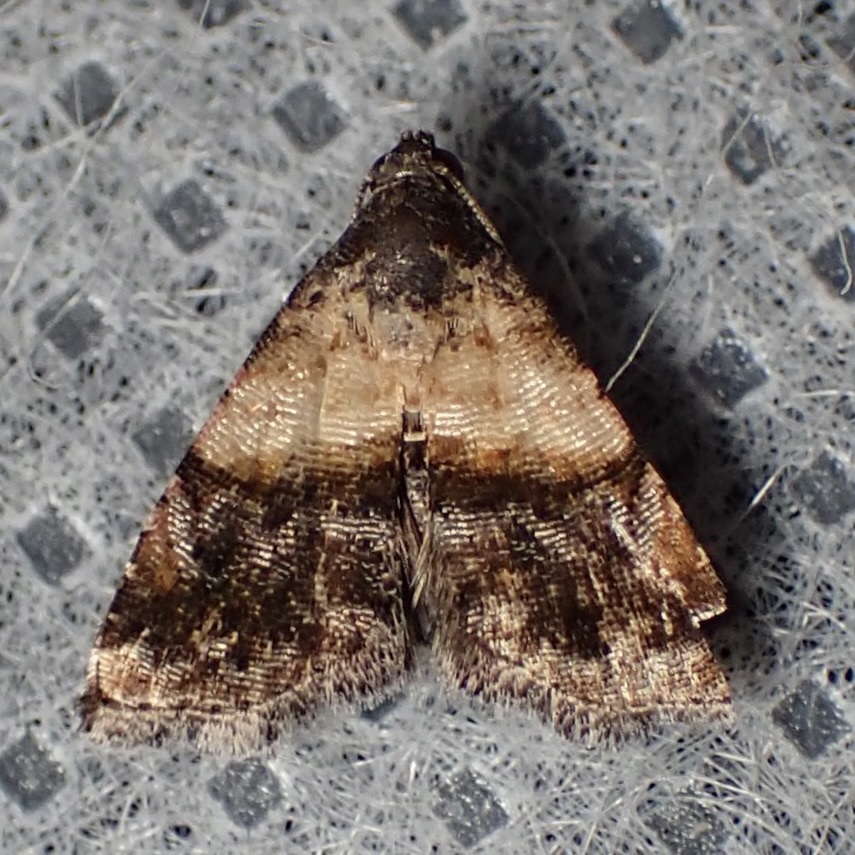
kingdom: Animalia
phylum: Arthropoda
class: Insecta
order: Lepidoptera
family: Noctuidae
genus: Tripudia
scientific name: Tripudia luda
